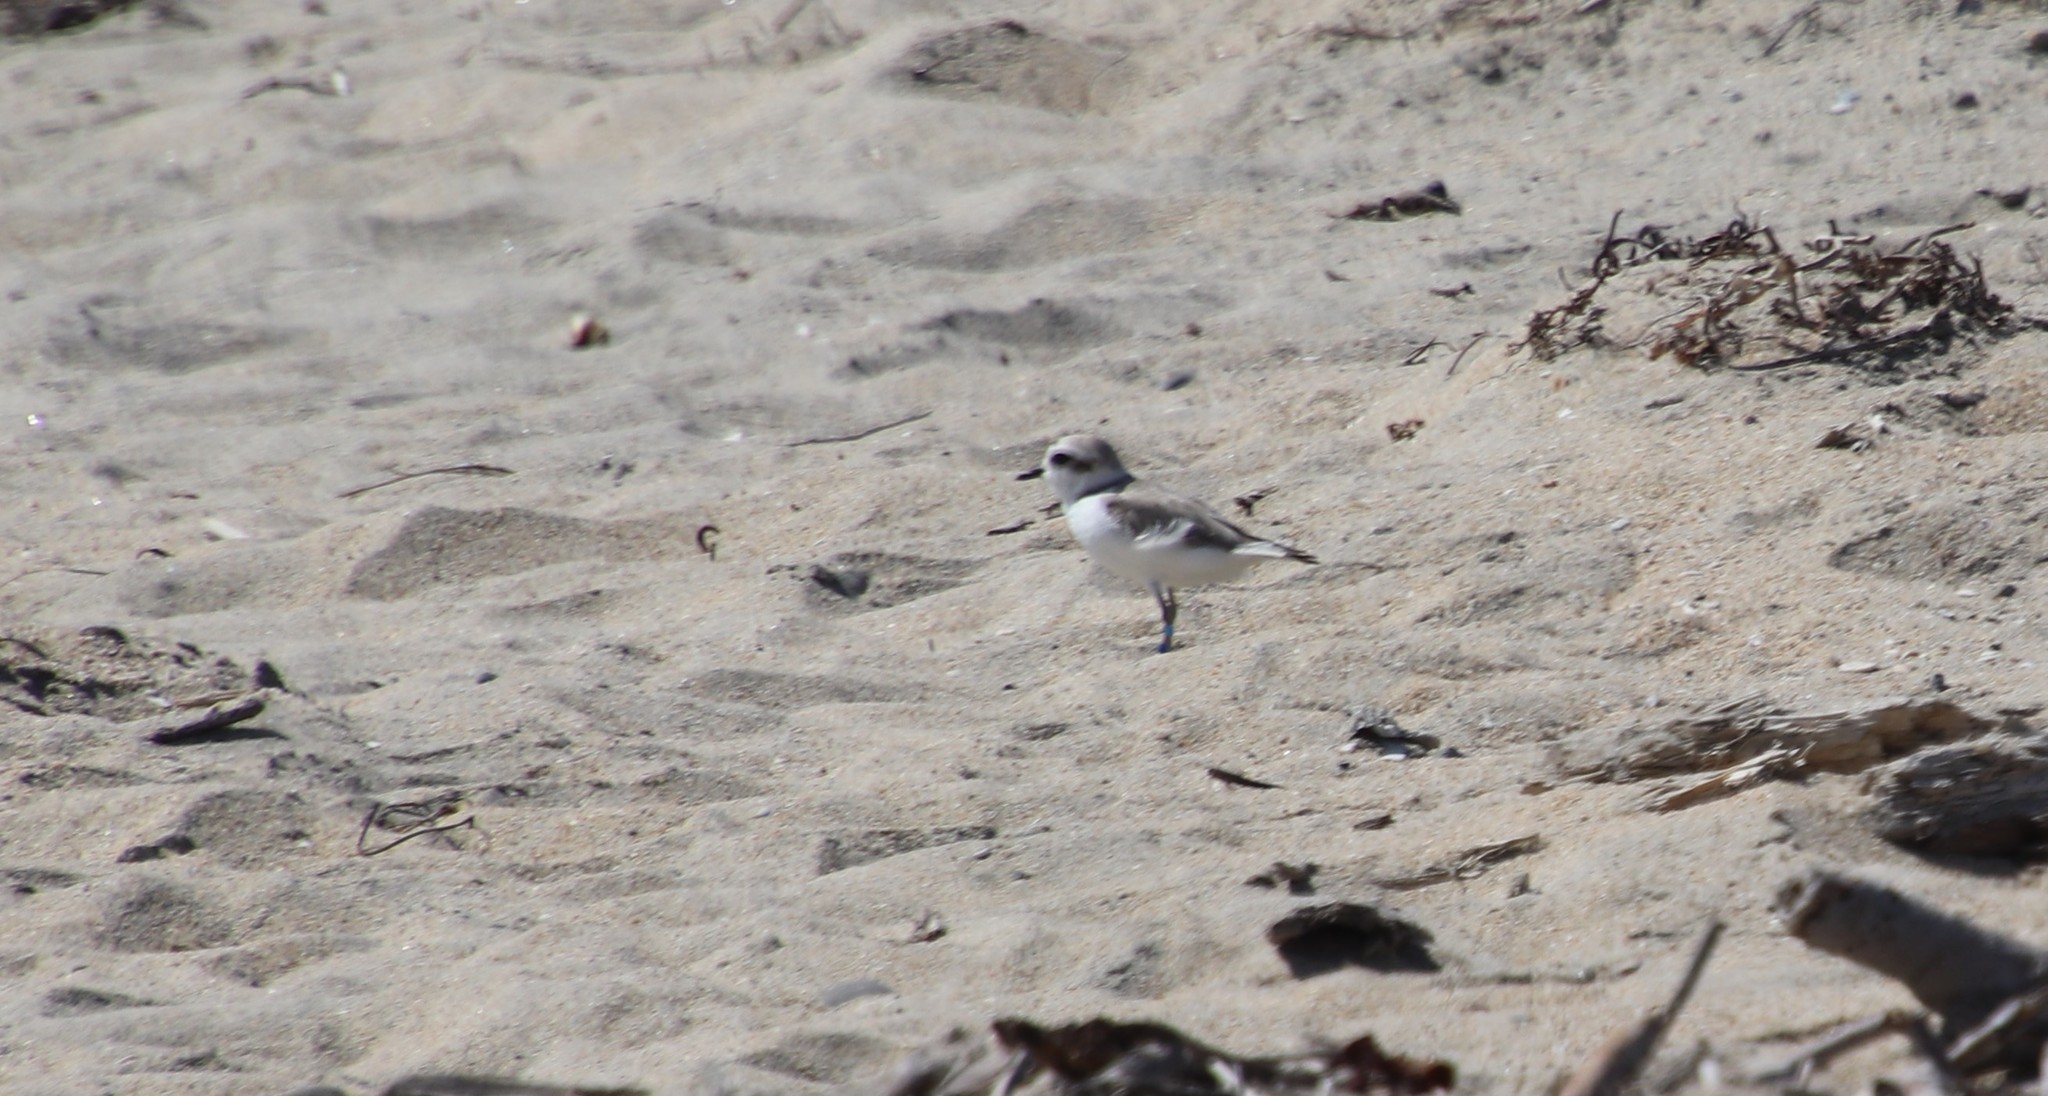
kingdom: Animalia
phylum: Chordata
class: Aves
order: Charadriiformes
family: Charadriidae
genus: Anarhynchus
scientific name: Anarhynchus
